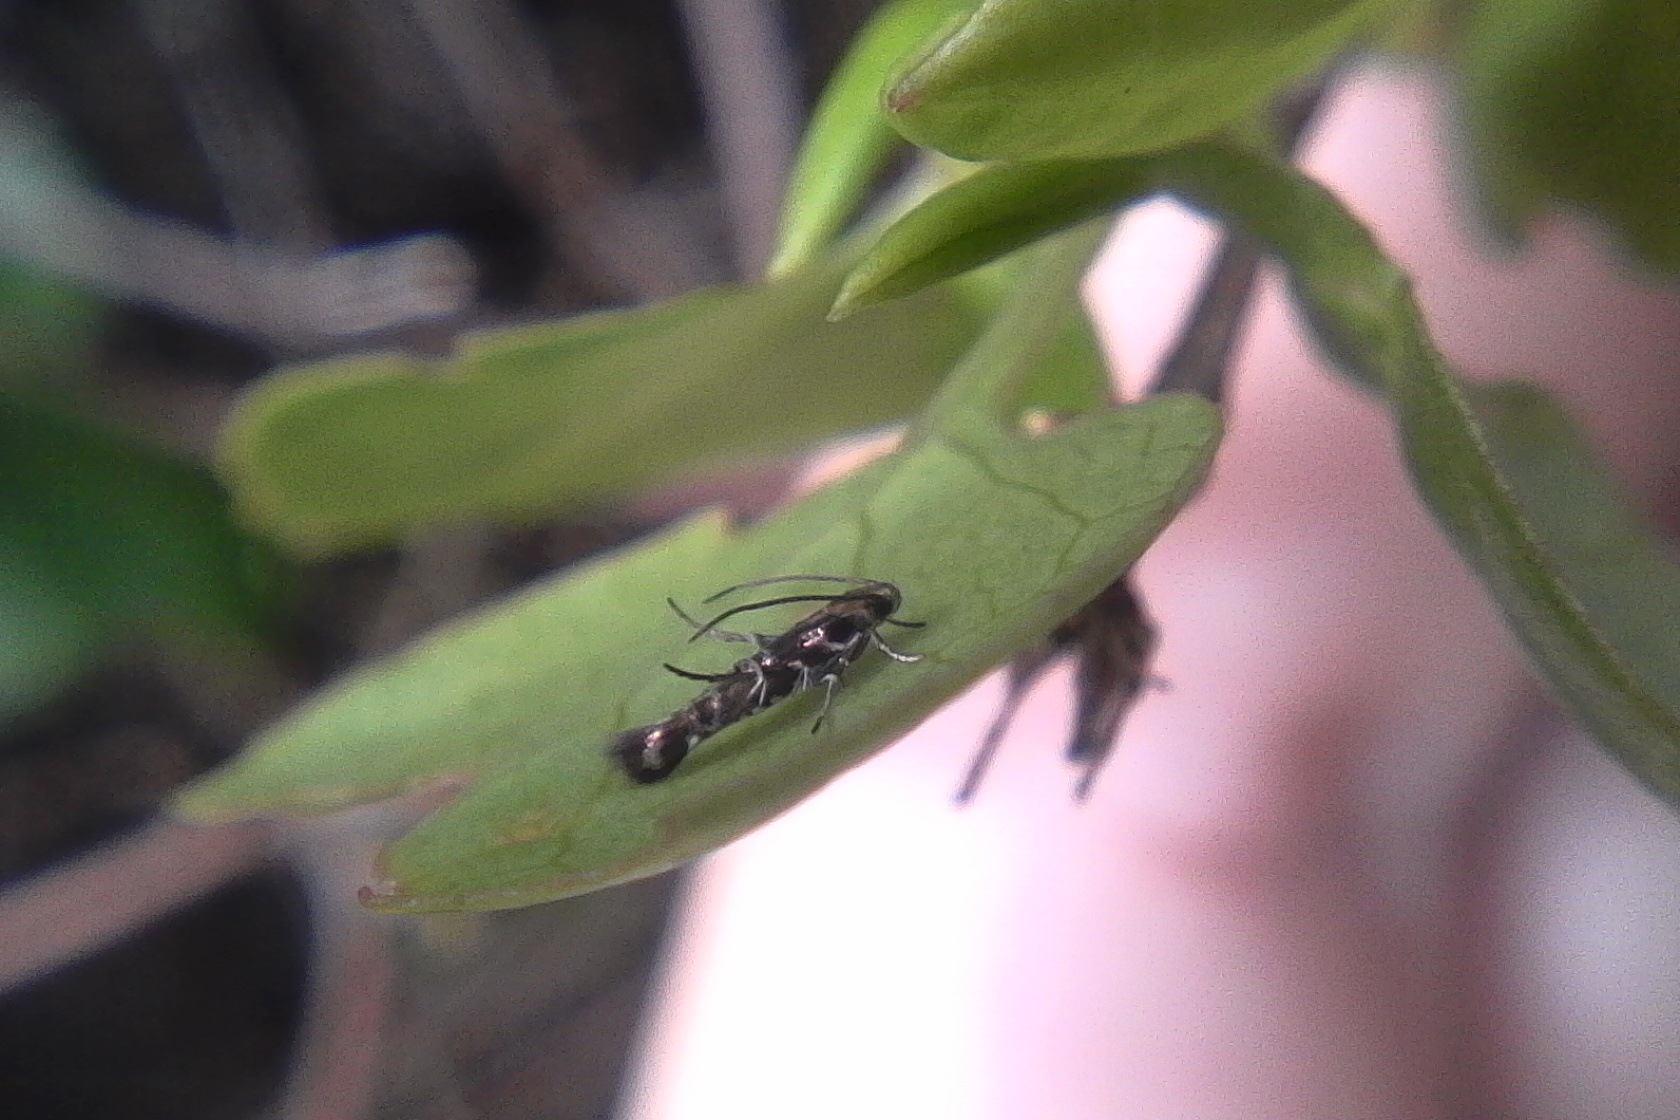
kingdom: Animalia
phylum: Arthropoda
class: Insecta
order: Lepidoptera
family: Momphidae
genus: Zapyrastra
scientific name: Zapyrastra calliphana
